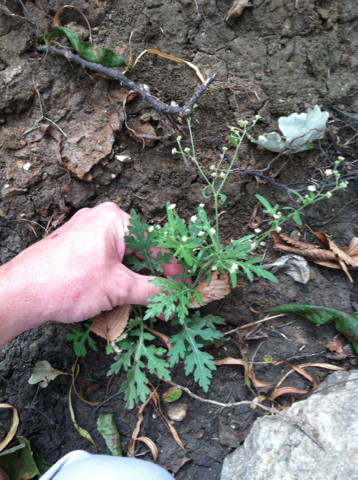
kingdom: Plantae
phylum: Tracheophyta
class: Magnoliopsida
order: Asterales
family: Asteraceae
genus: Parthenium
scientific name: Parthenium hysterophorus
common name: Santa maria feverfew
